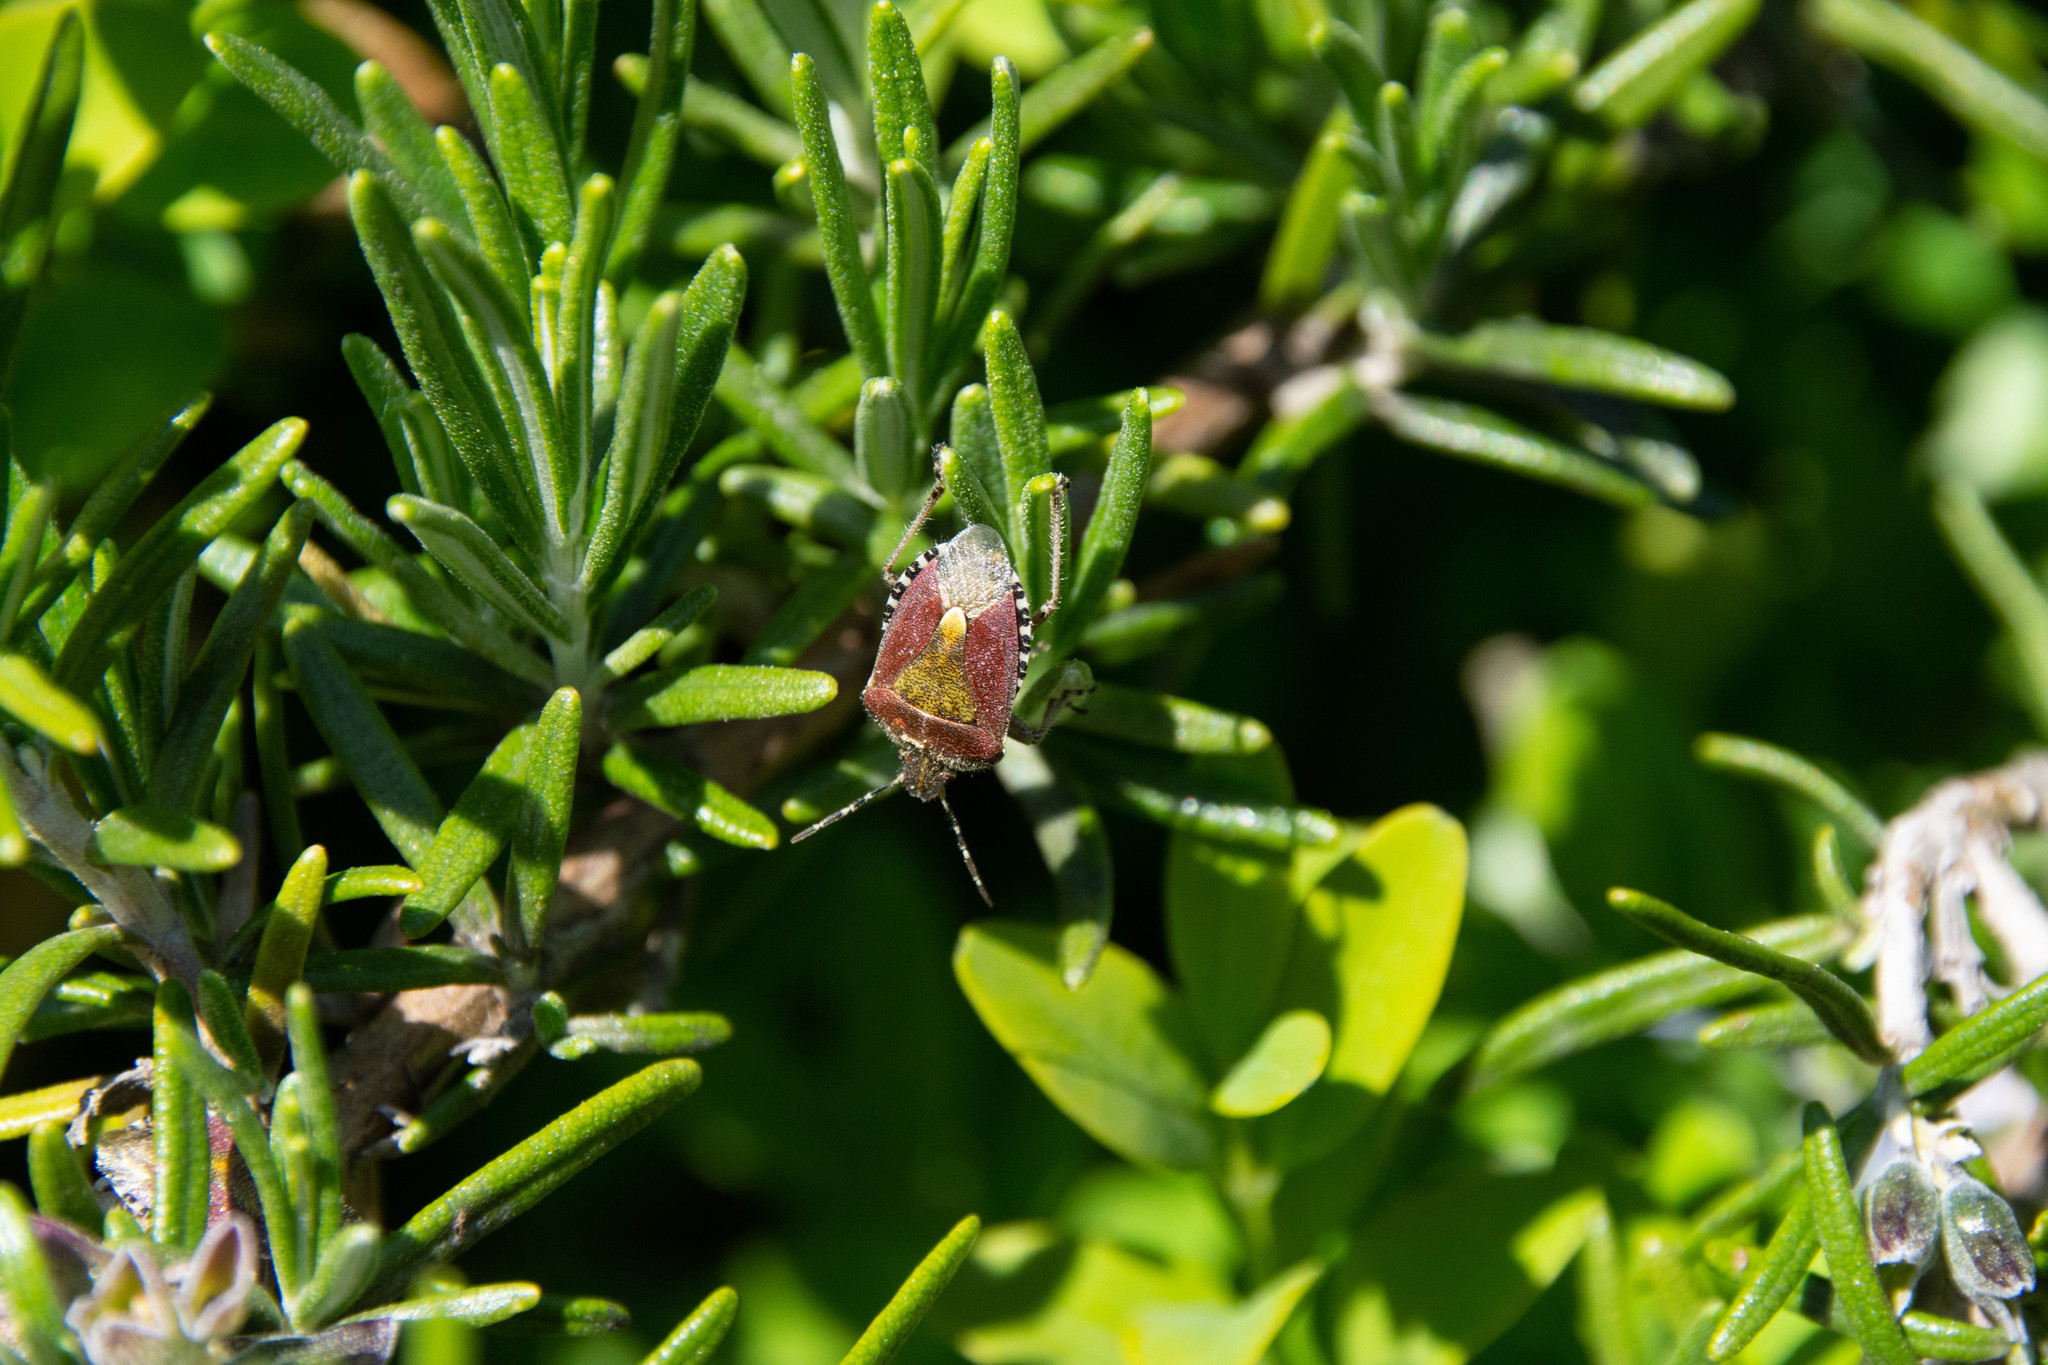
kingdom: Animalia
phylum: Arthropoda
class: Insecta
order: Hemiptera
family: Pentatomidae
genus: Dolycoris
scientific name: Dolycoris baccarum
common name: Sloe bug
